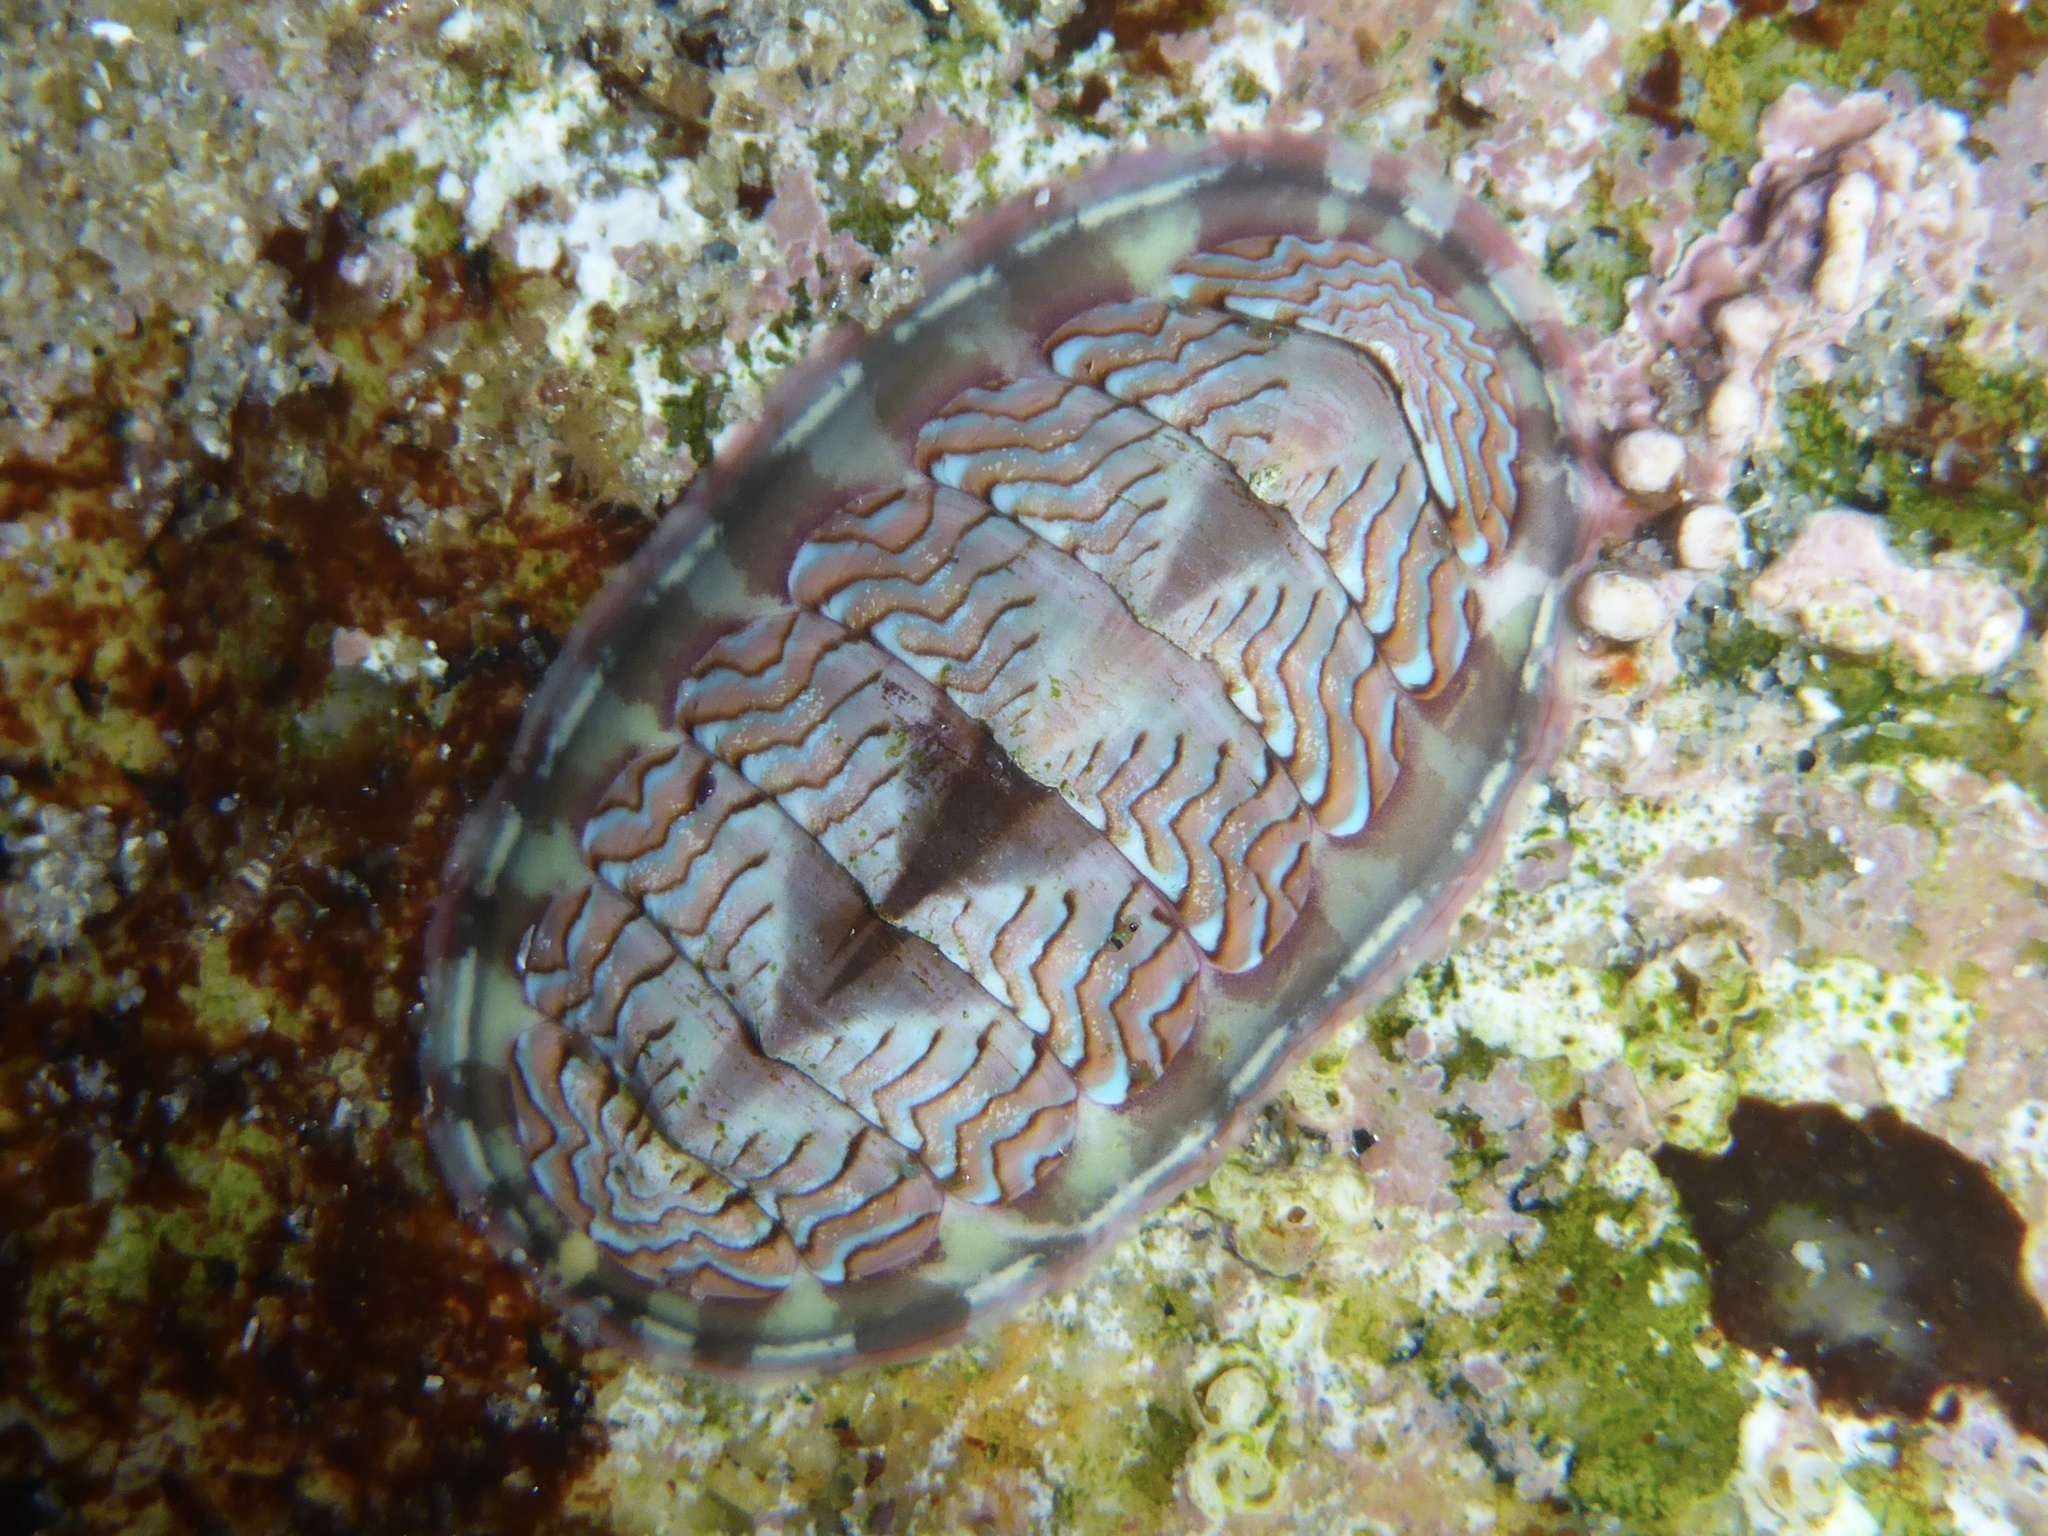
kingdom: Animalia
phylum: Mollusca
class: Polyplacophora
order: Chitonida
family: Tonicellidae
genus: Tonicella
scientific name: Tonicella lokii
